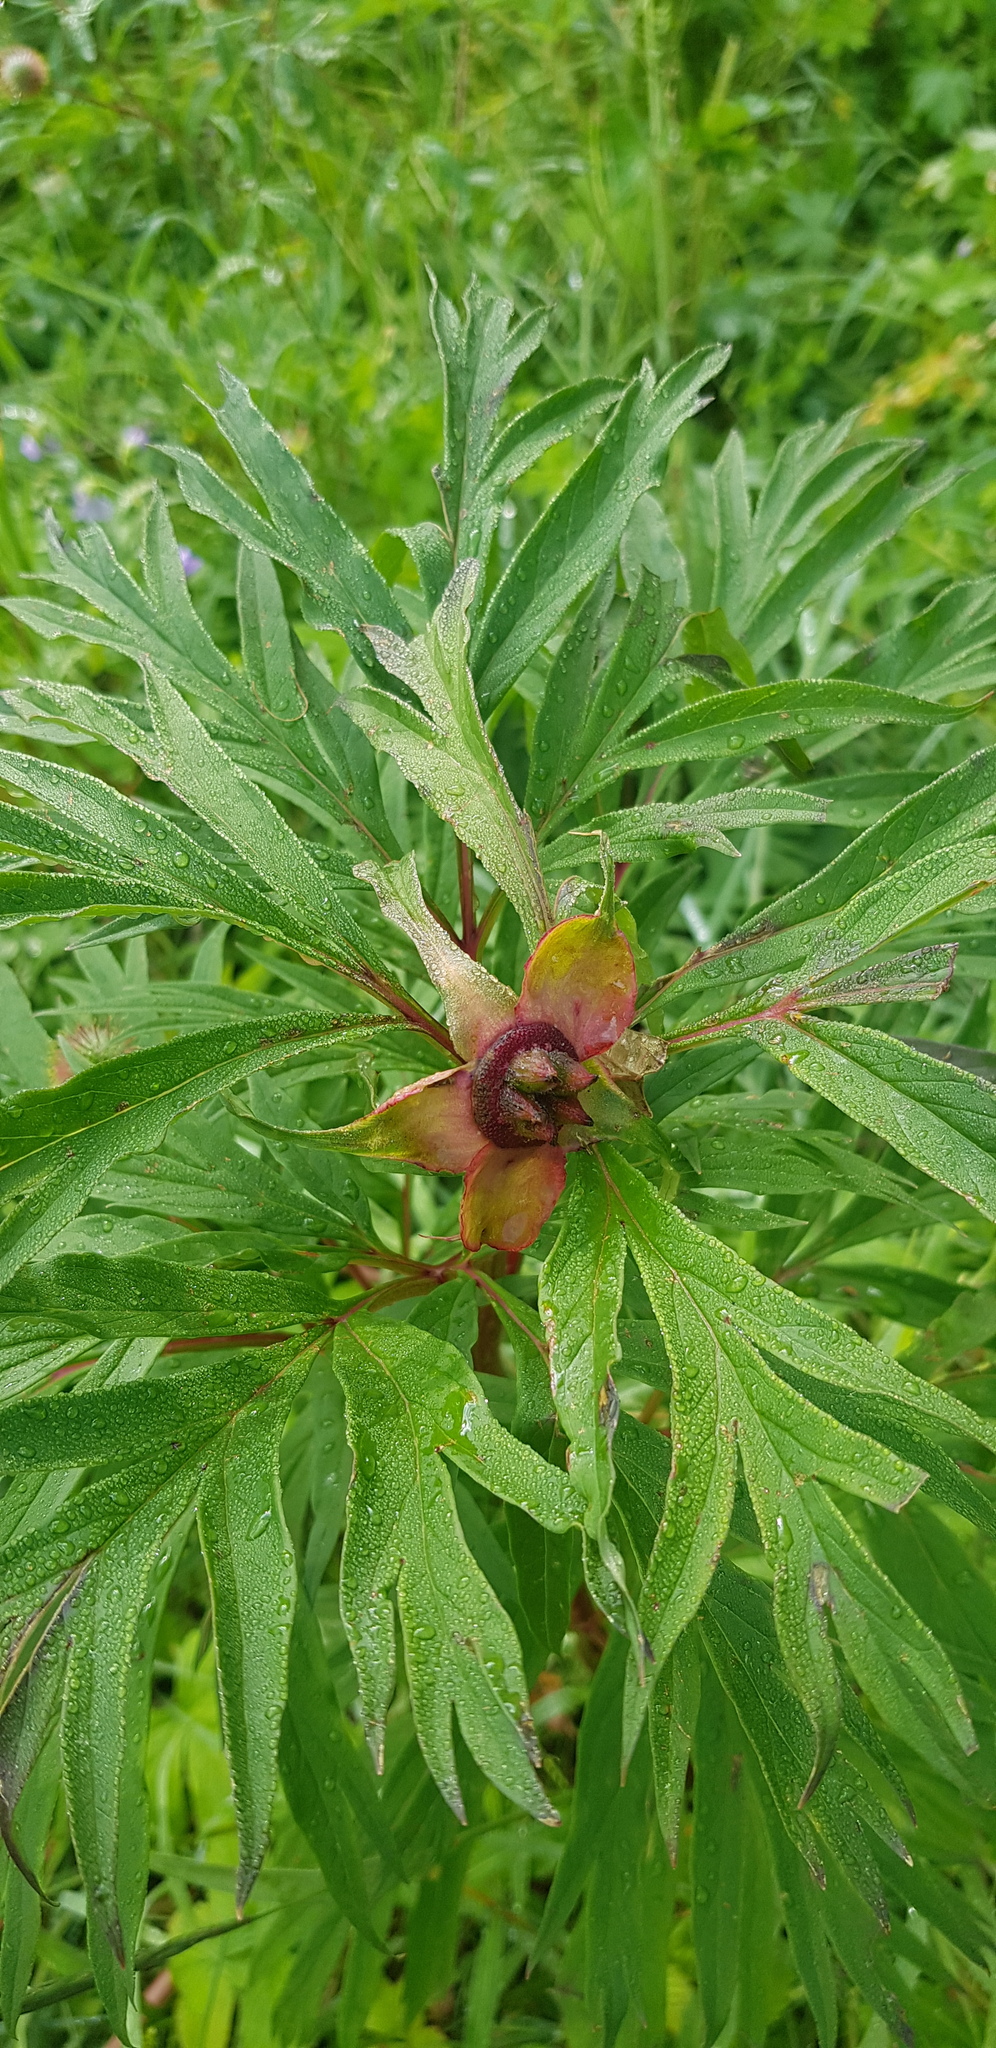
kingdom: Plantae
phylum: Tracheophyta
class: Magnoliopsida
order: Saxifragales
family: Paeoniaceae
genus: Paeonia
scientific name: Paeonia anomala
